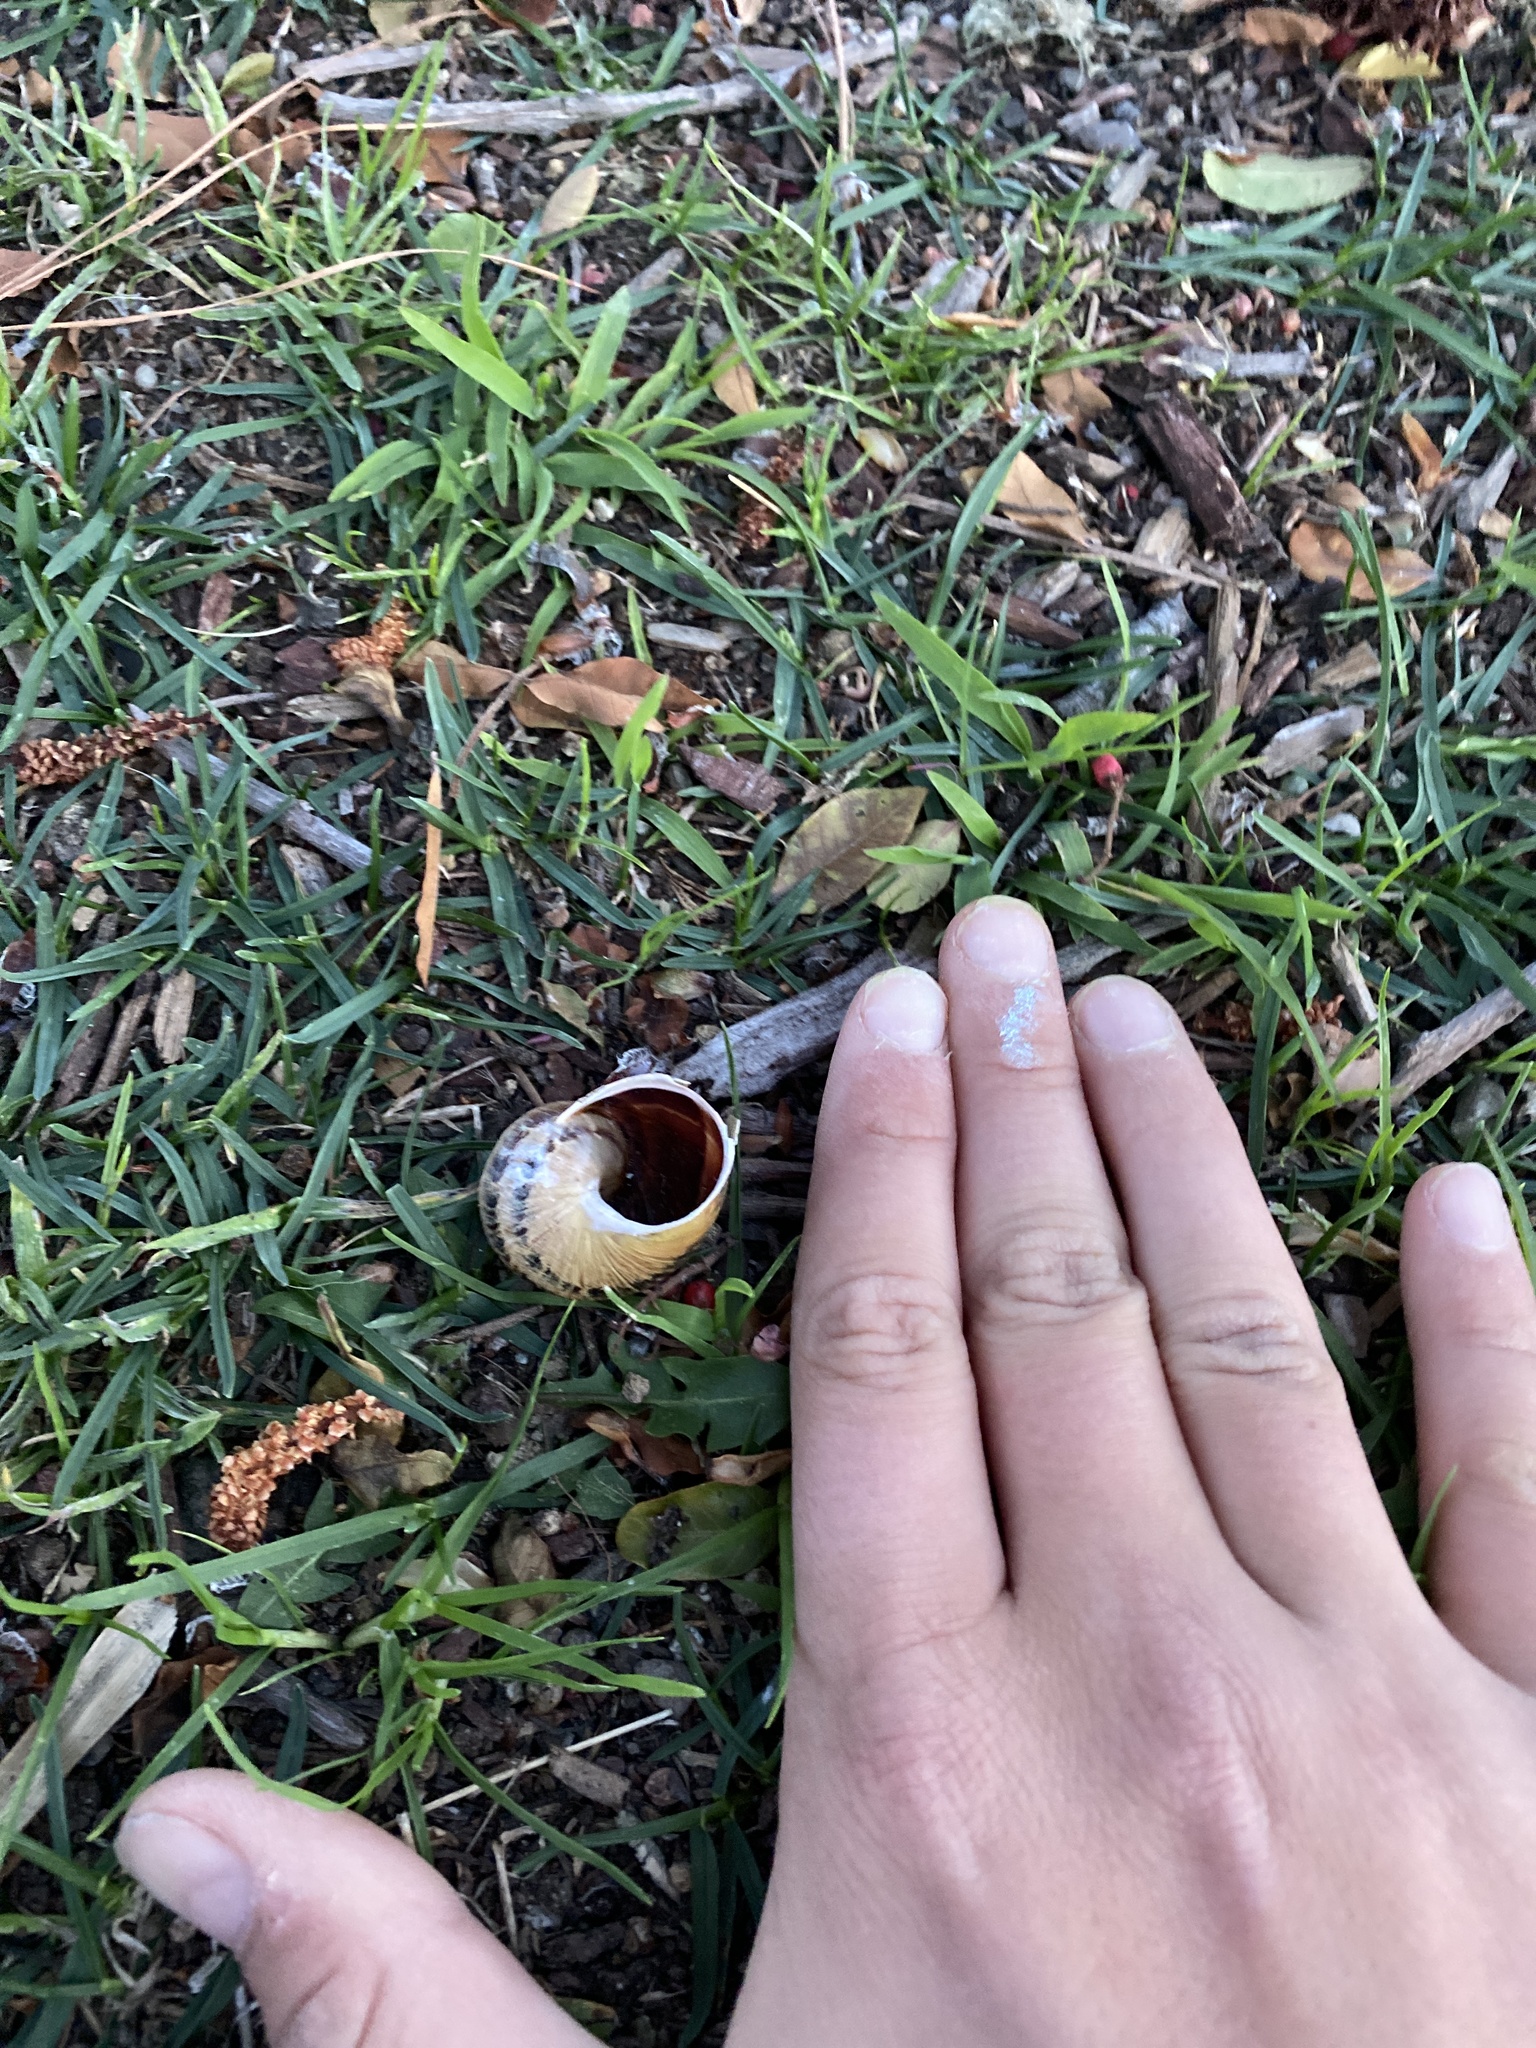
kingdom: Animalia
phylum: Mollusca
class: Gastropoda
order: Stylommatophora
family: Helicidae
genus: Cornu
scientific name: Cornu aspersum
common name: Brown garden snail
